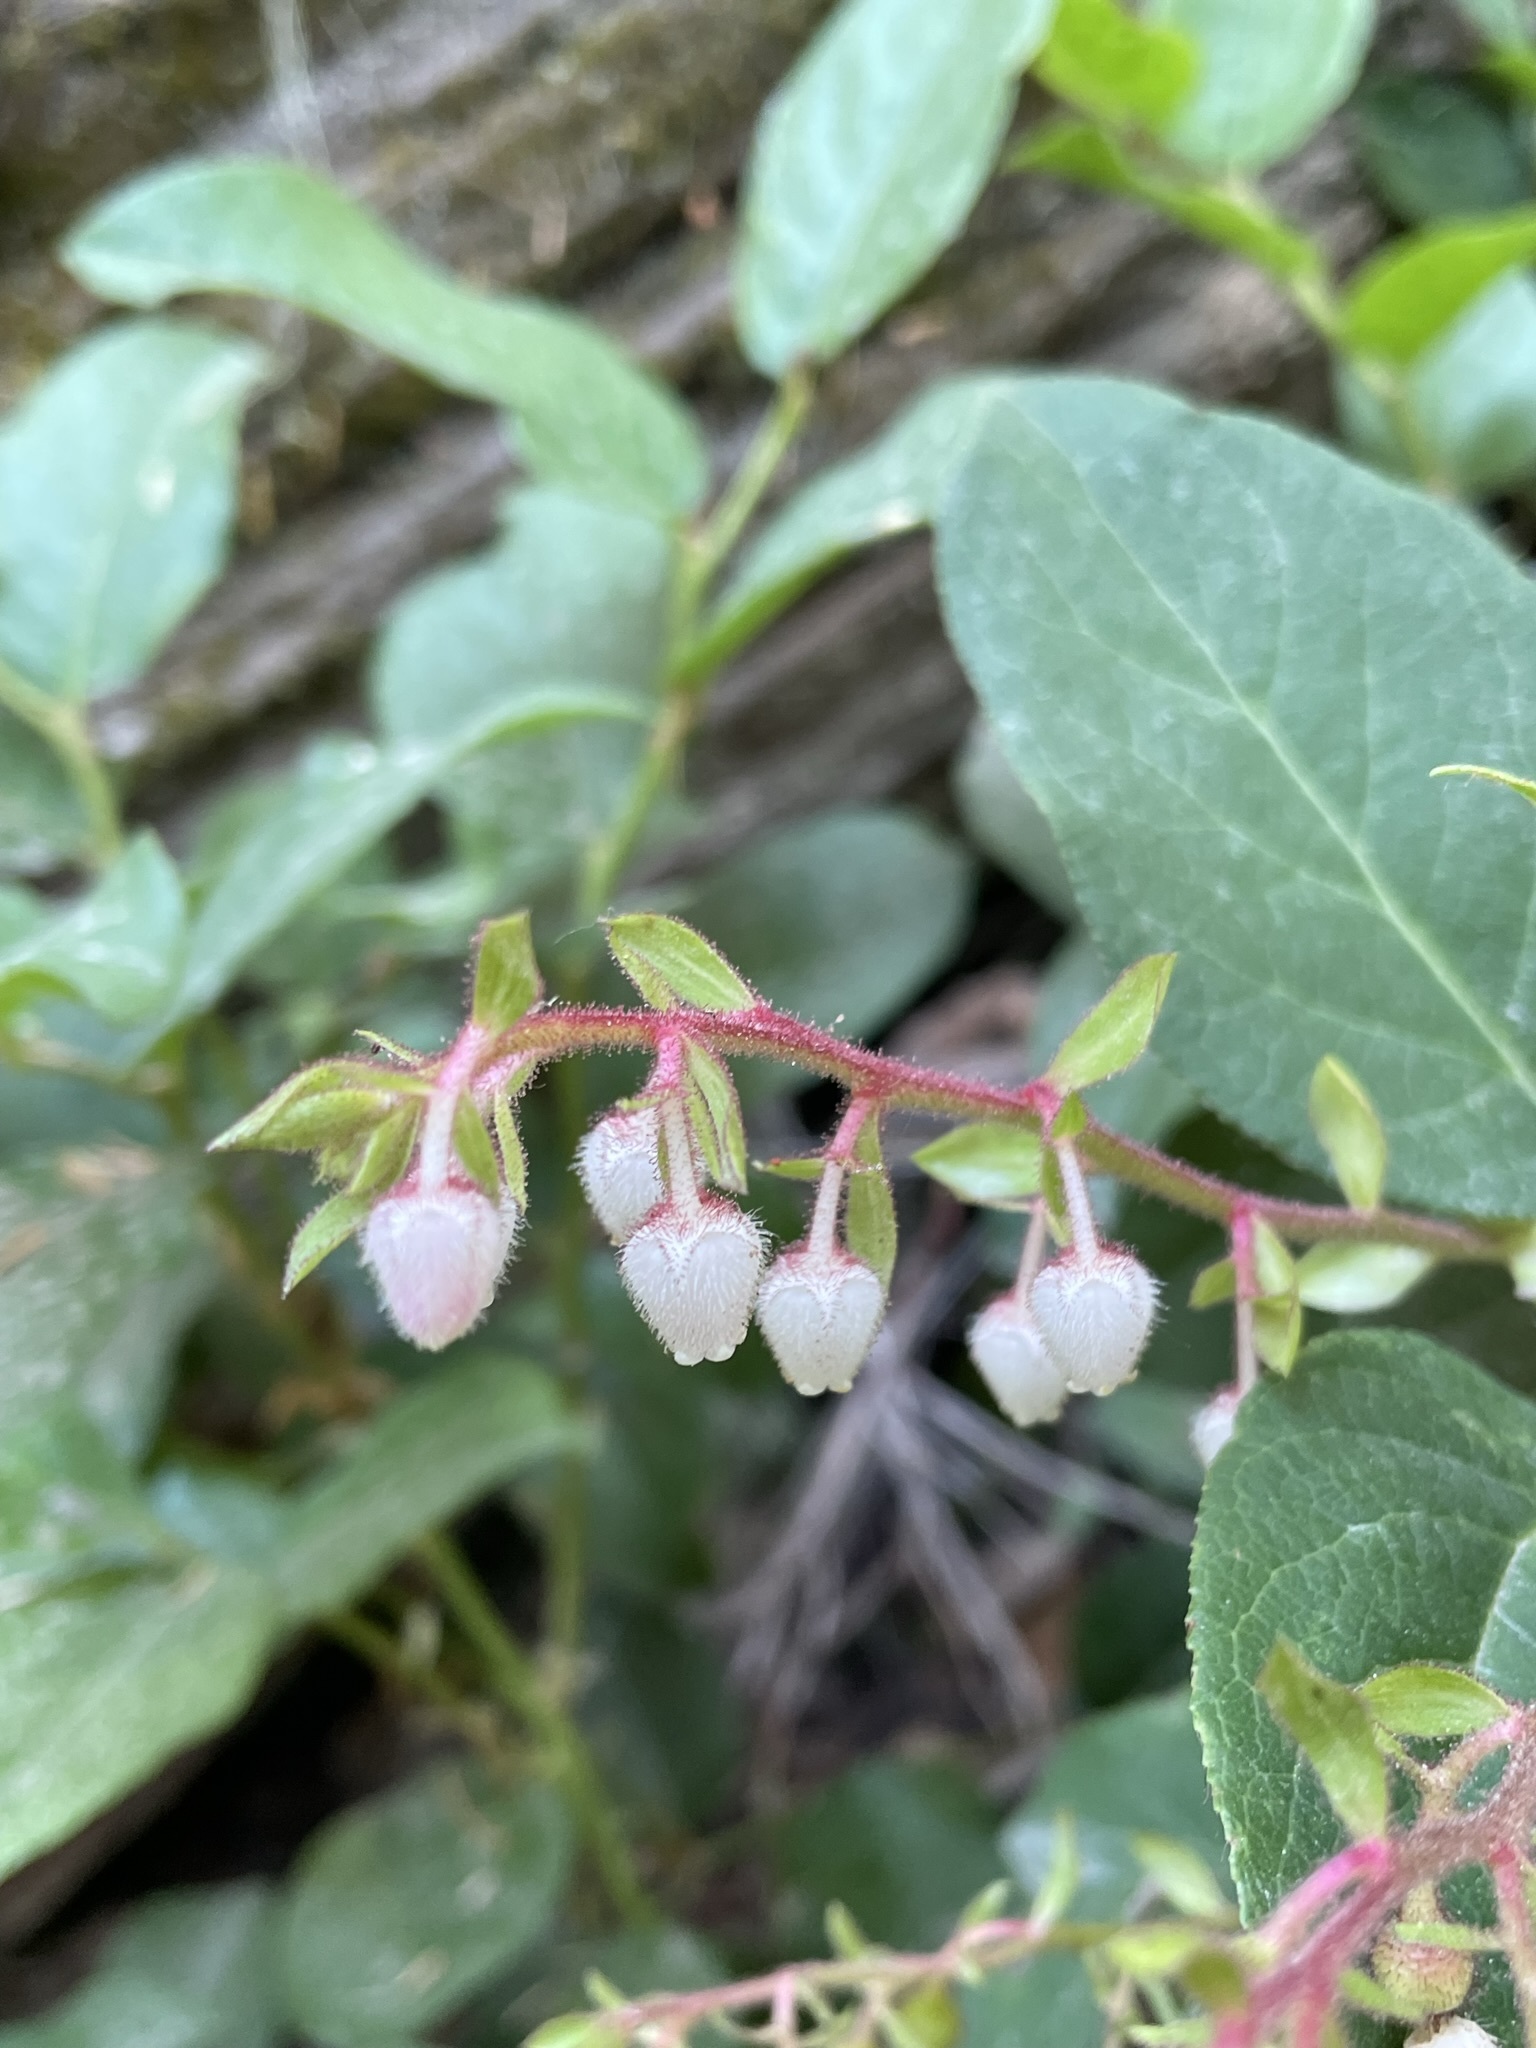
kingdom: Plantae
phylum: Tracheophyta
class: Magnoliopsida
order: Ericales
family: Ericaceae
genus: Gaultheria
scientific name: Gaultheria shallon
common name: Shallon
